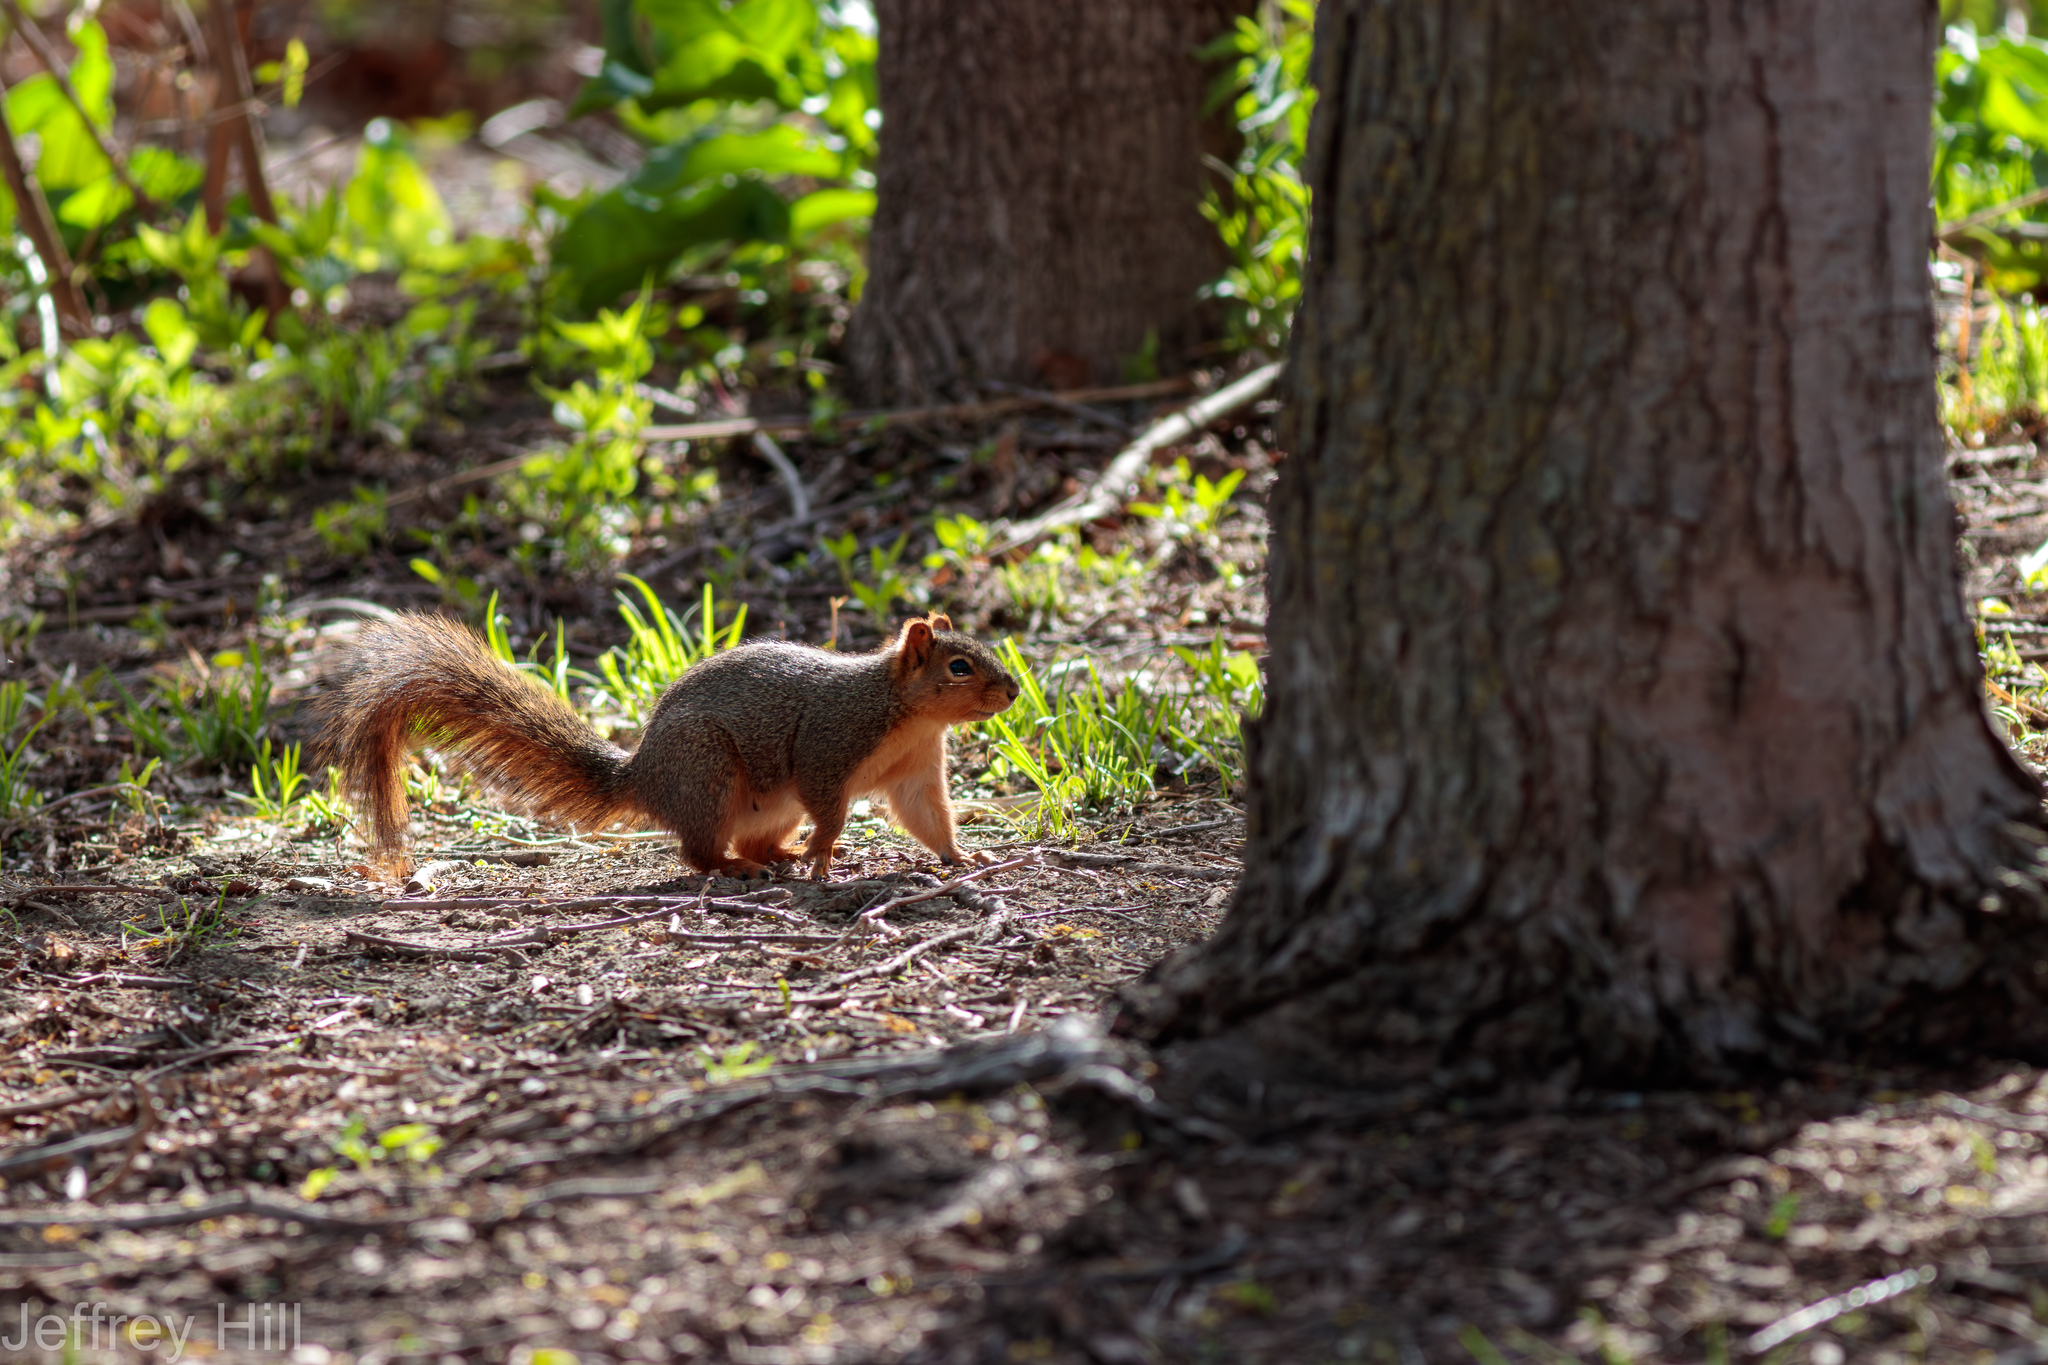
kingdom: Animalia
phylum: Chordata
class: Mammalia
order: Rodentia
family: Sciuridae
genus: Sciurus
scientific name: Sciurus niger
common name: Fox squirrel
